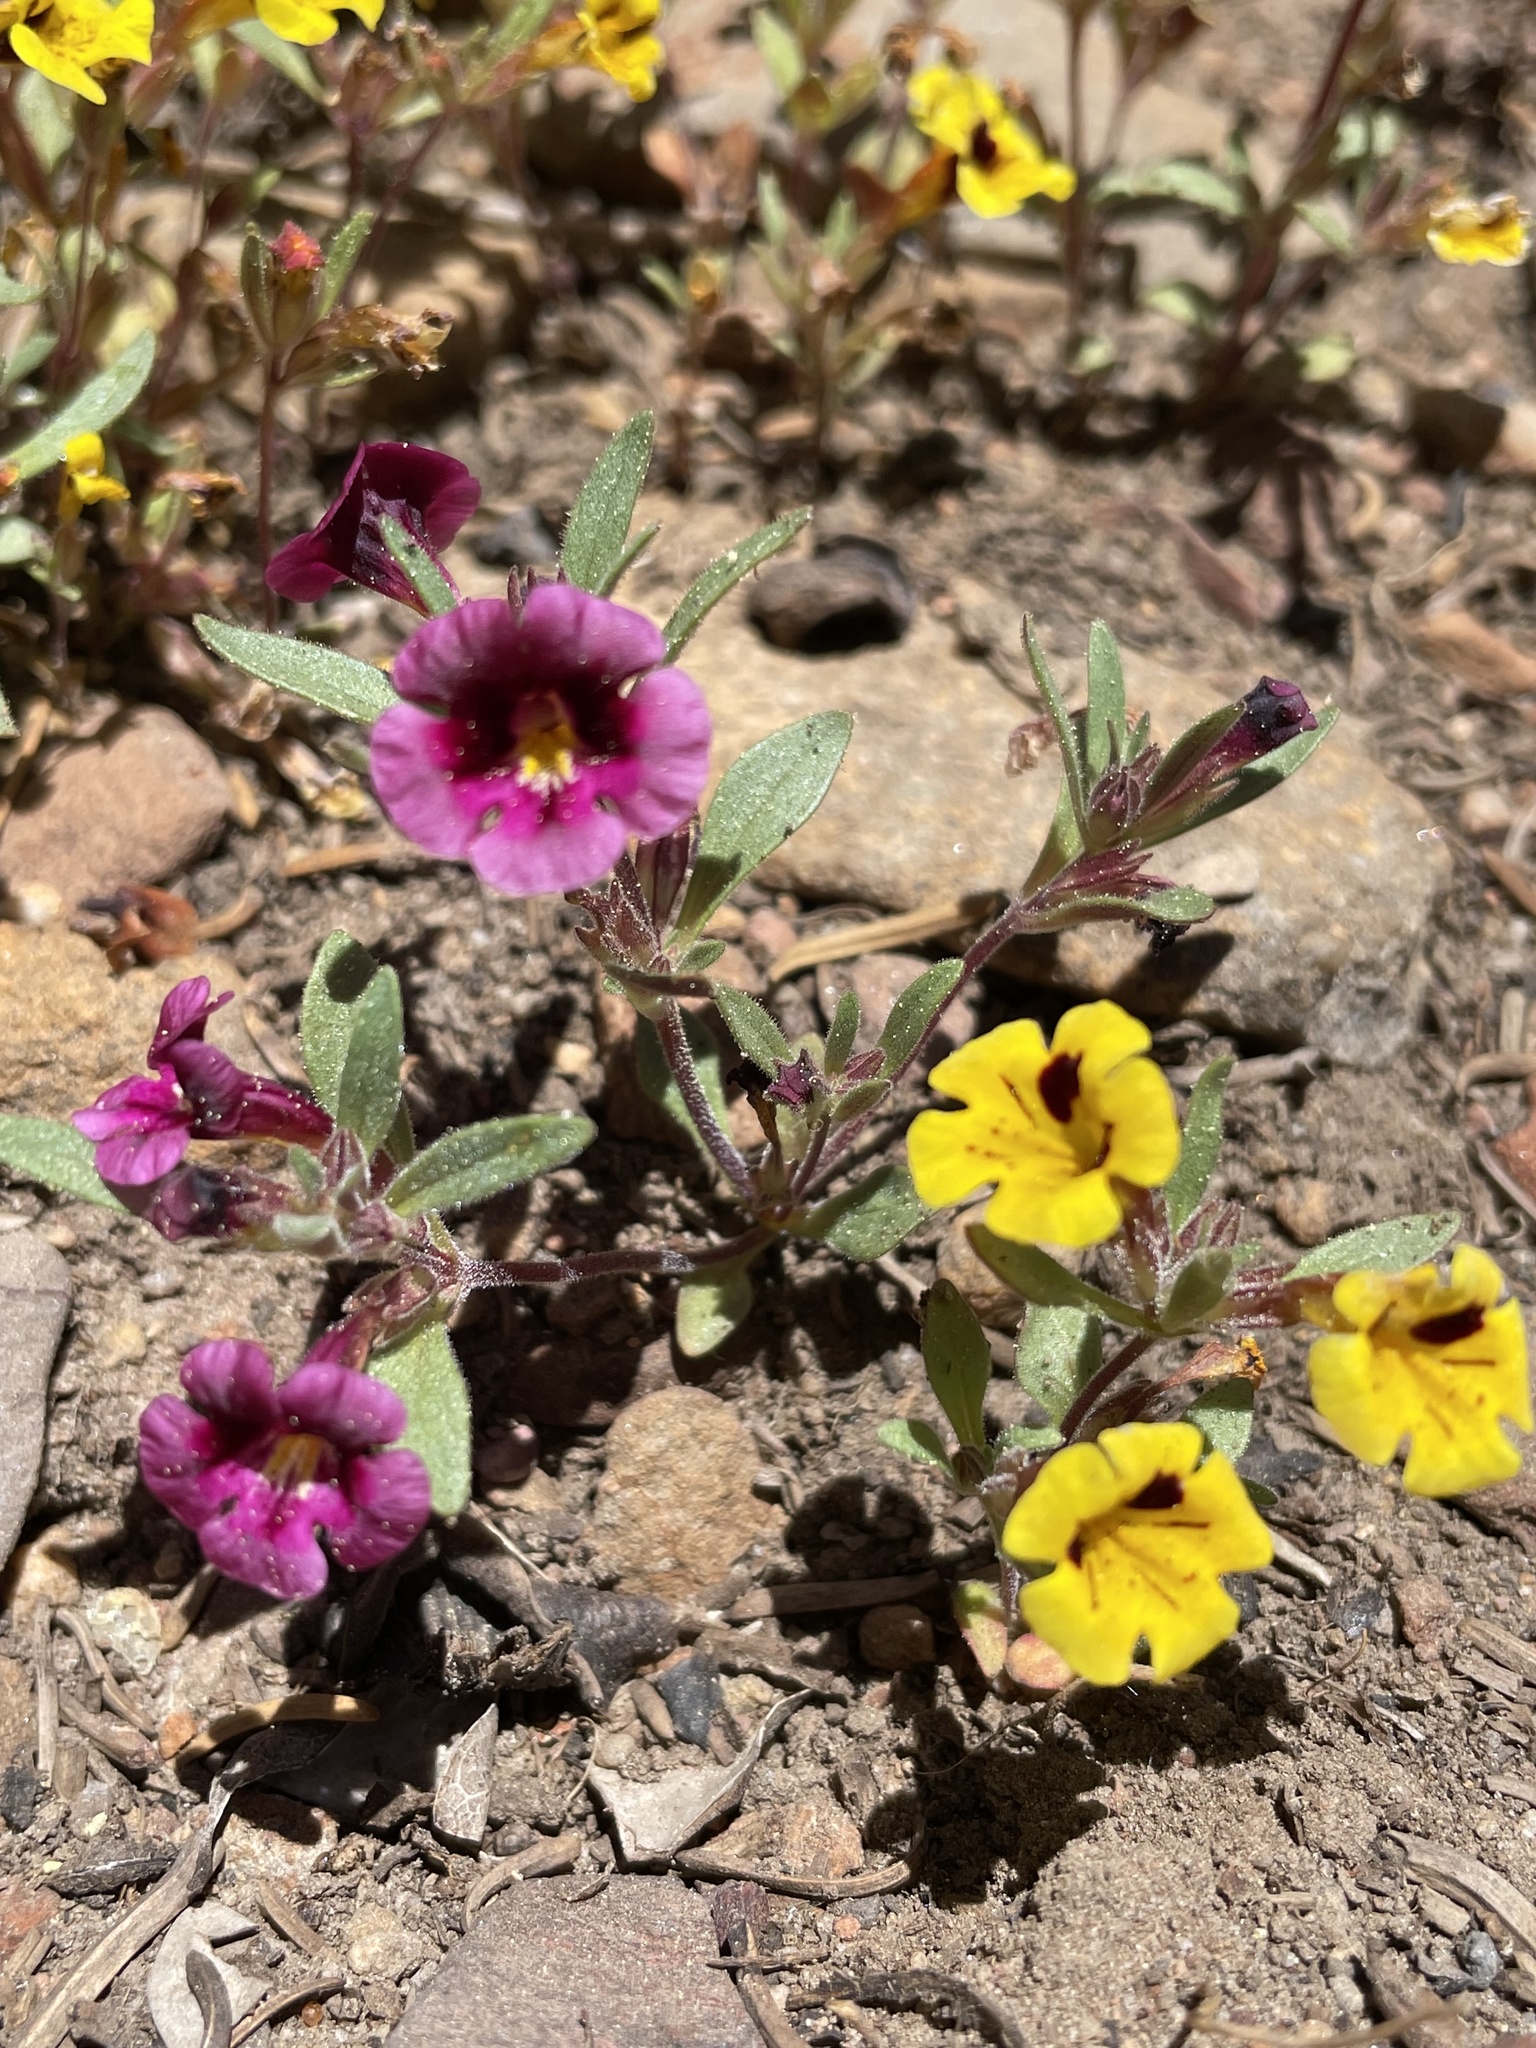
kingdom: Plantae
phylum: Tracheophyta
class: Magnoliopsida
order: Lamiales
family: Phrymaceae
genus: Diplacus
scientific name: Diplacus bicolor
